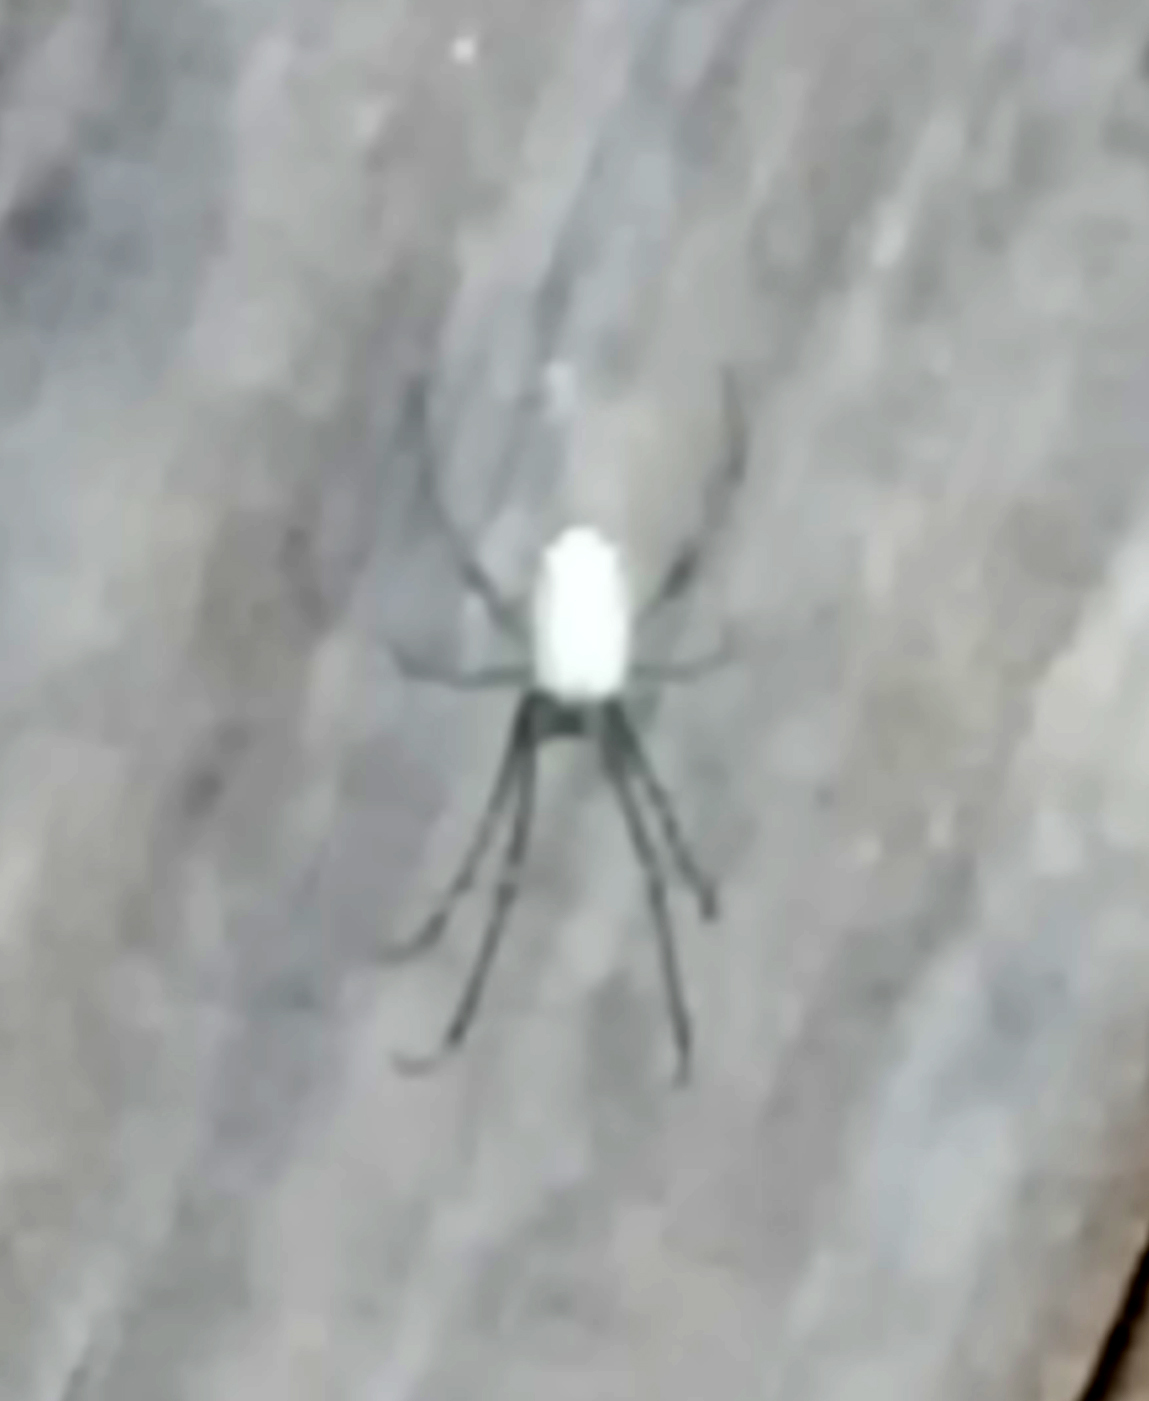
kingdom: Animalia
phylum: Arthropoda
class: Arachnida
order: Araneae
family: Tetragnathidae
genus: Leucauge
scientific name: Leucauge
